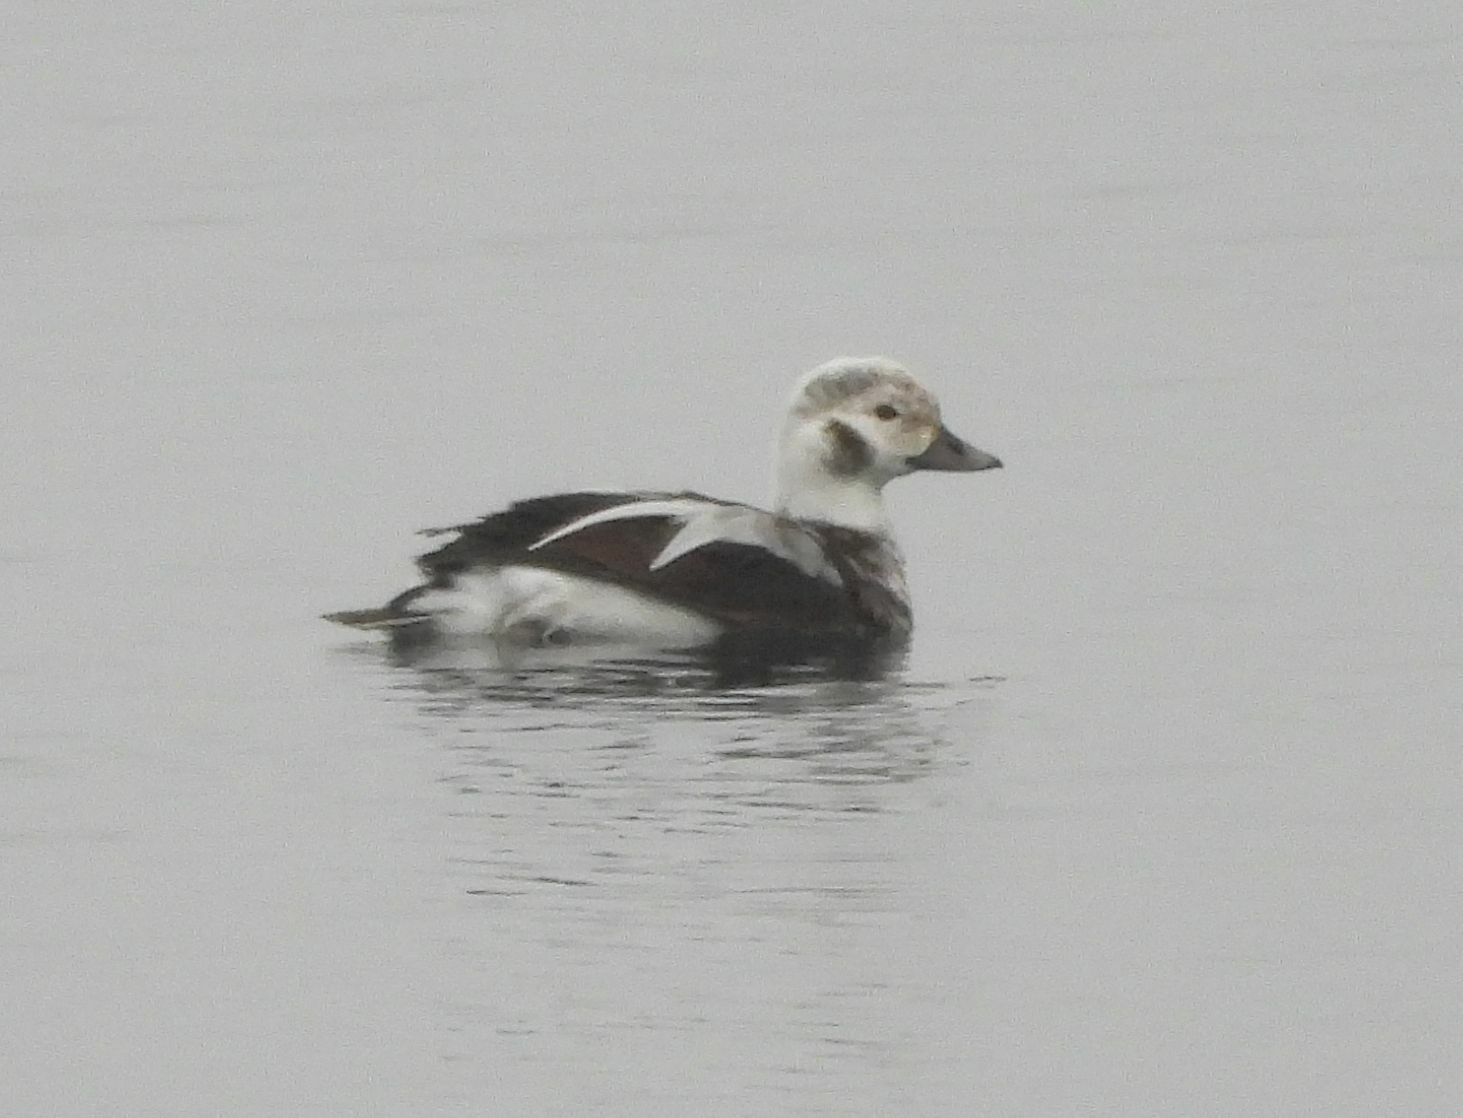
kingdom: Animalia
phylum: Chordata
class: Aves
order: Anseriformes
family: Anatidae
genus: Clangula
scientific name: Clangula hyemalis
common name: Long-tailed duck
